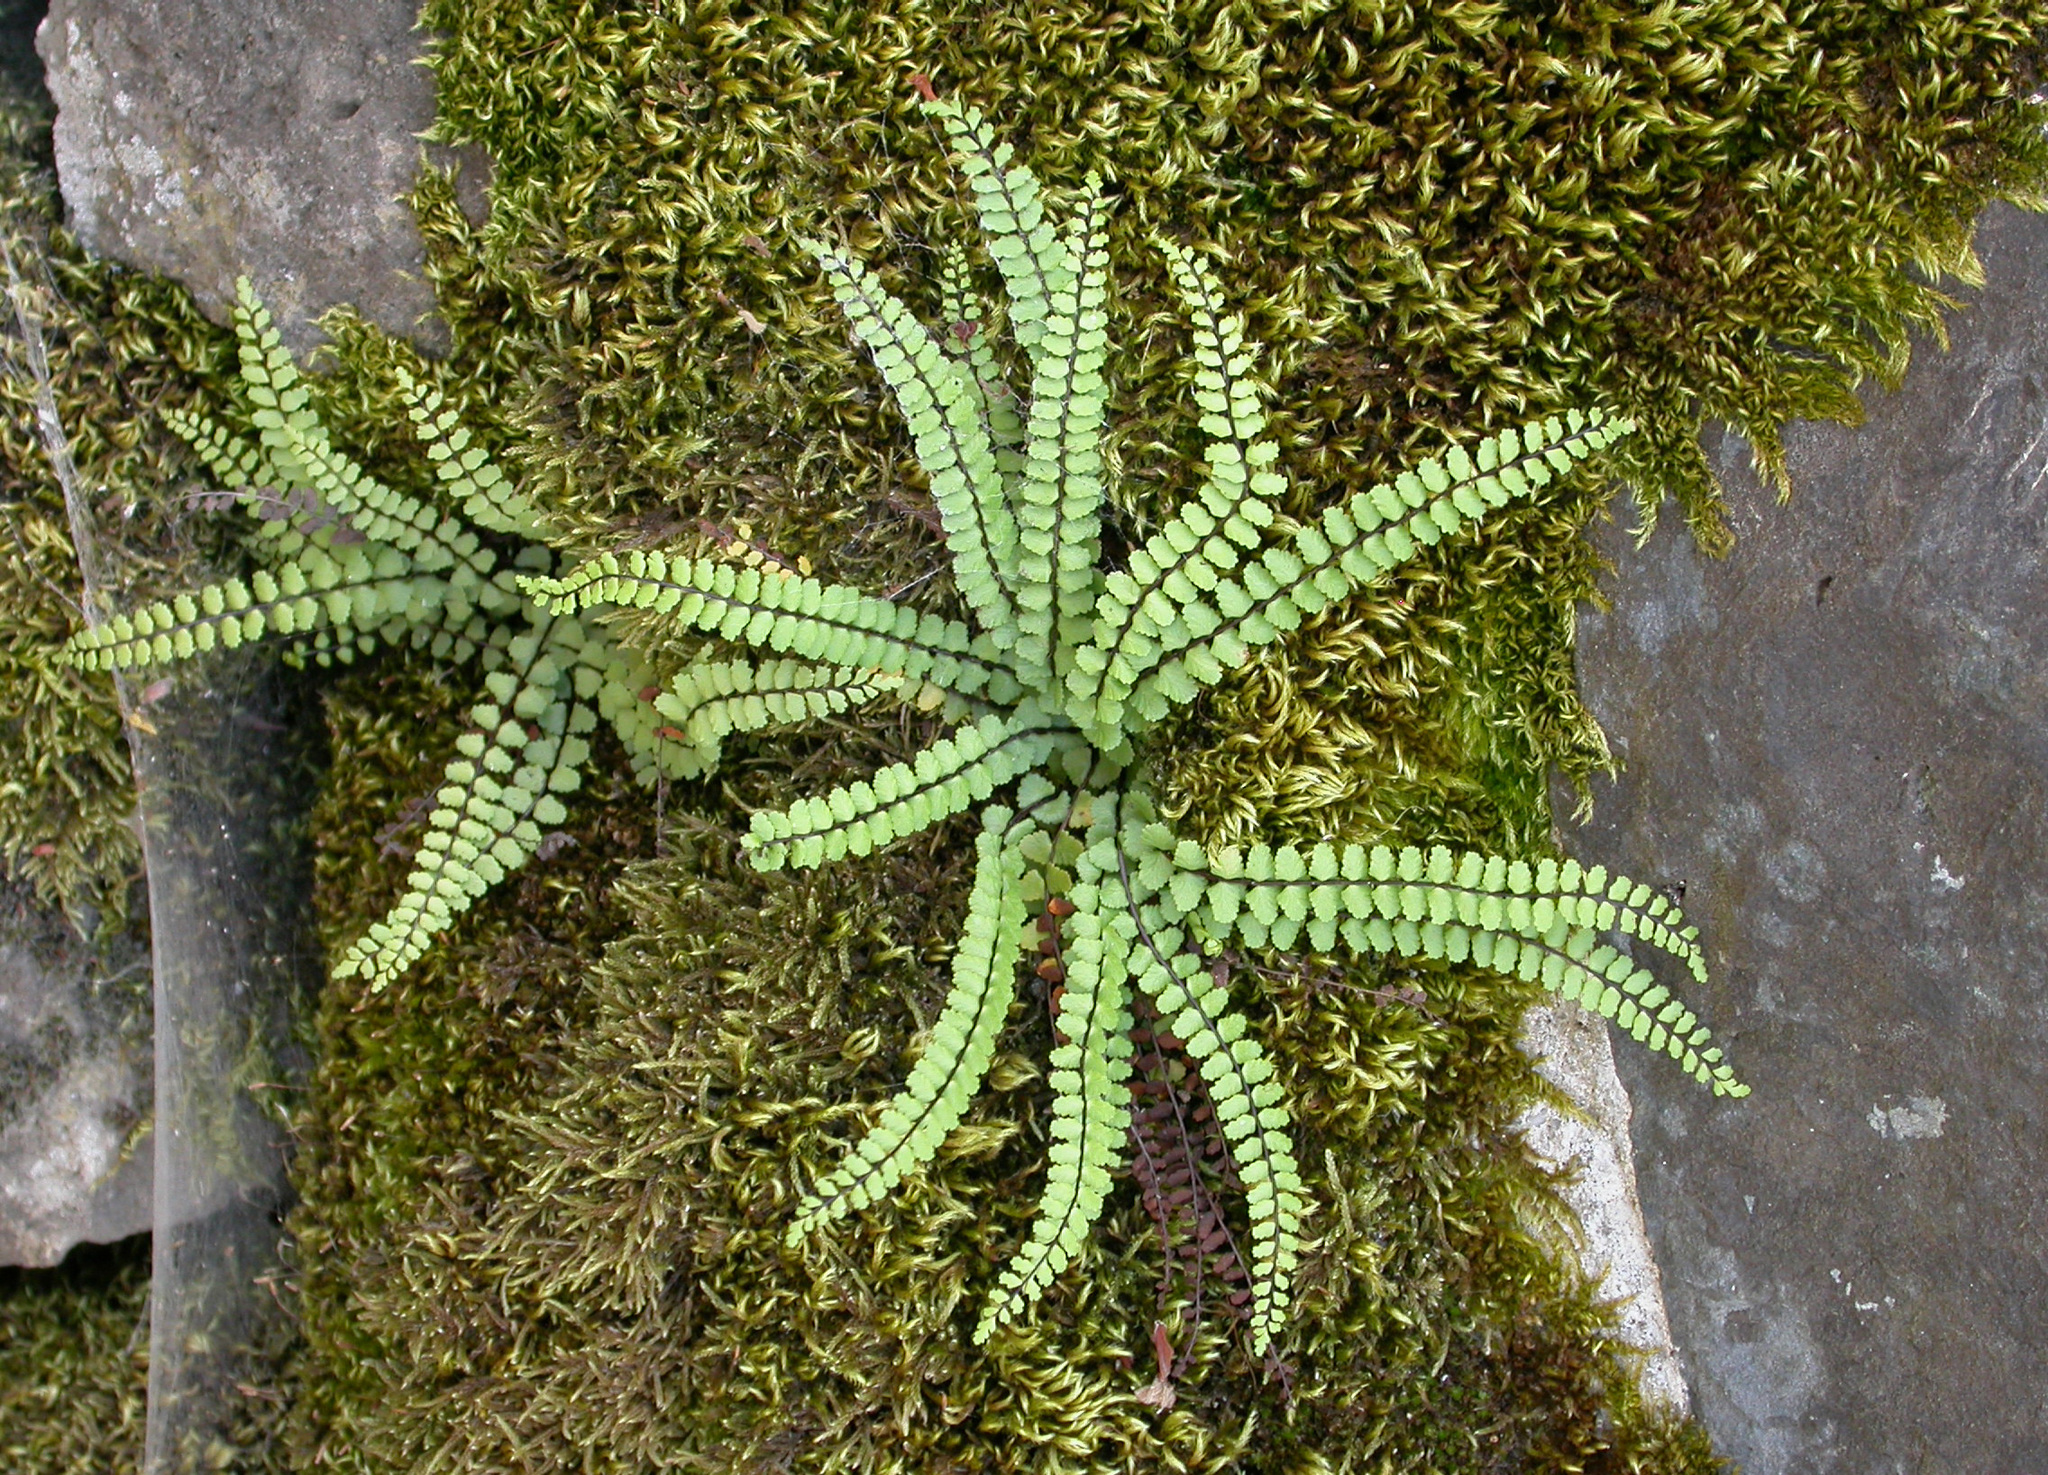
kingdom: Plantae
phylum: Tracheophyta
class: Polypodiopsida
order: Polypodiales
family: Aspleniaceae
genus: Asplenium
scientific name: Asplenium trichomanes
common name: Maidenhair spleenwort
